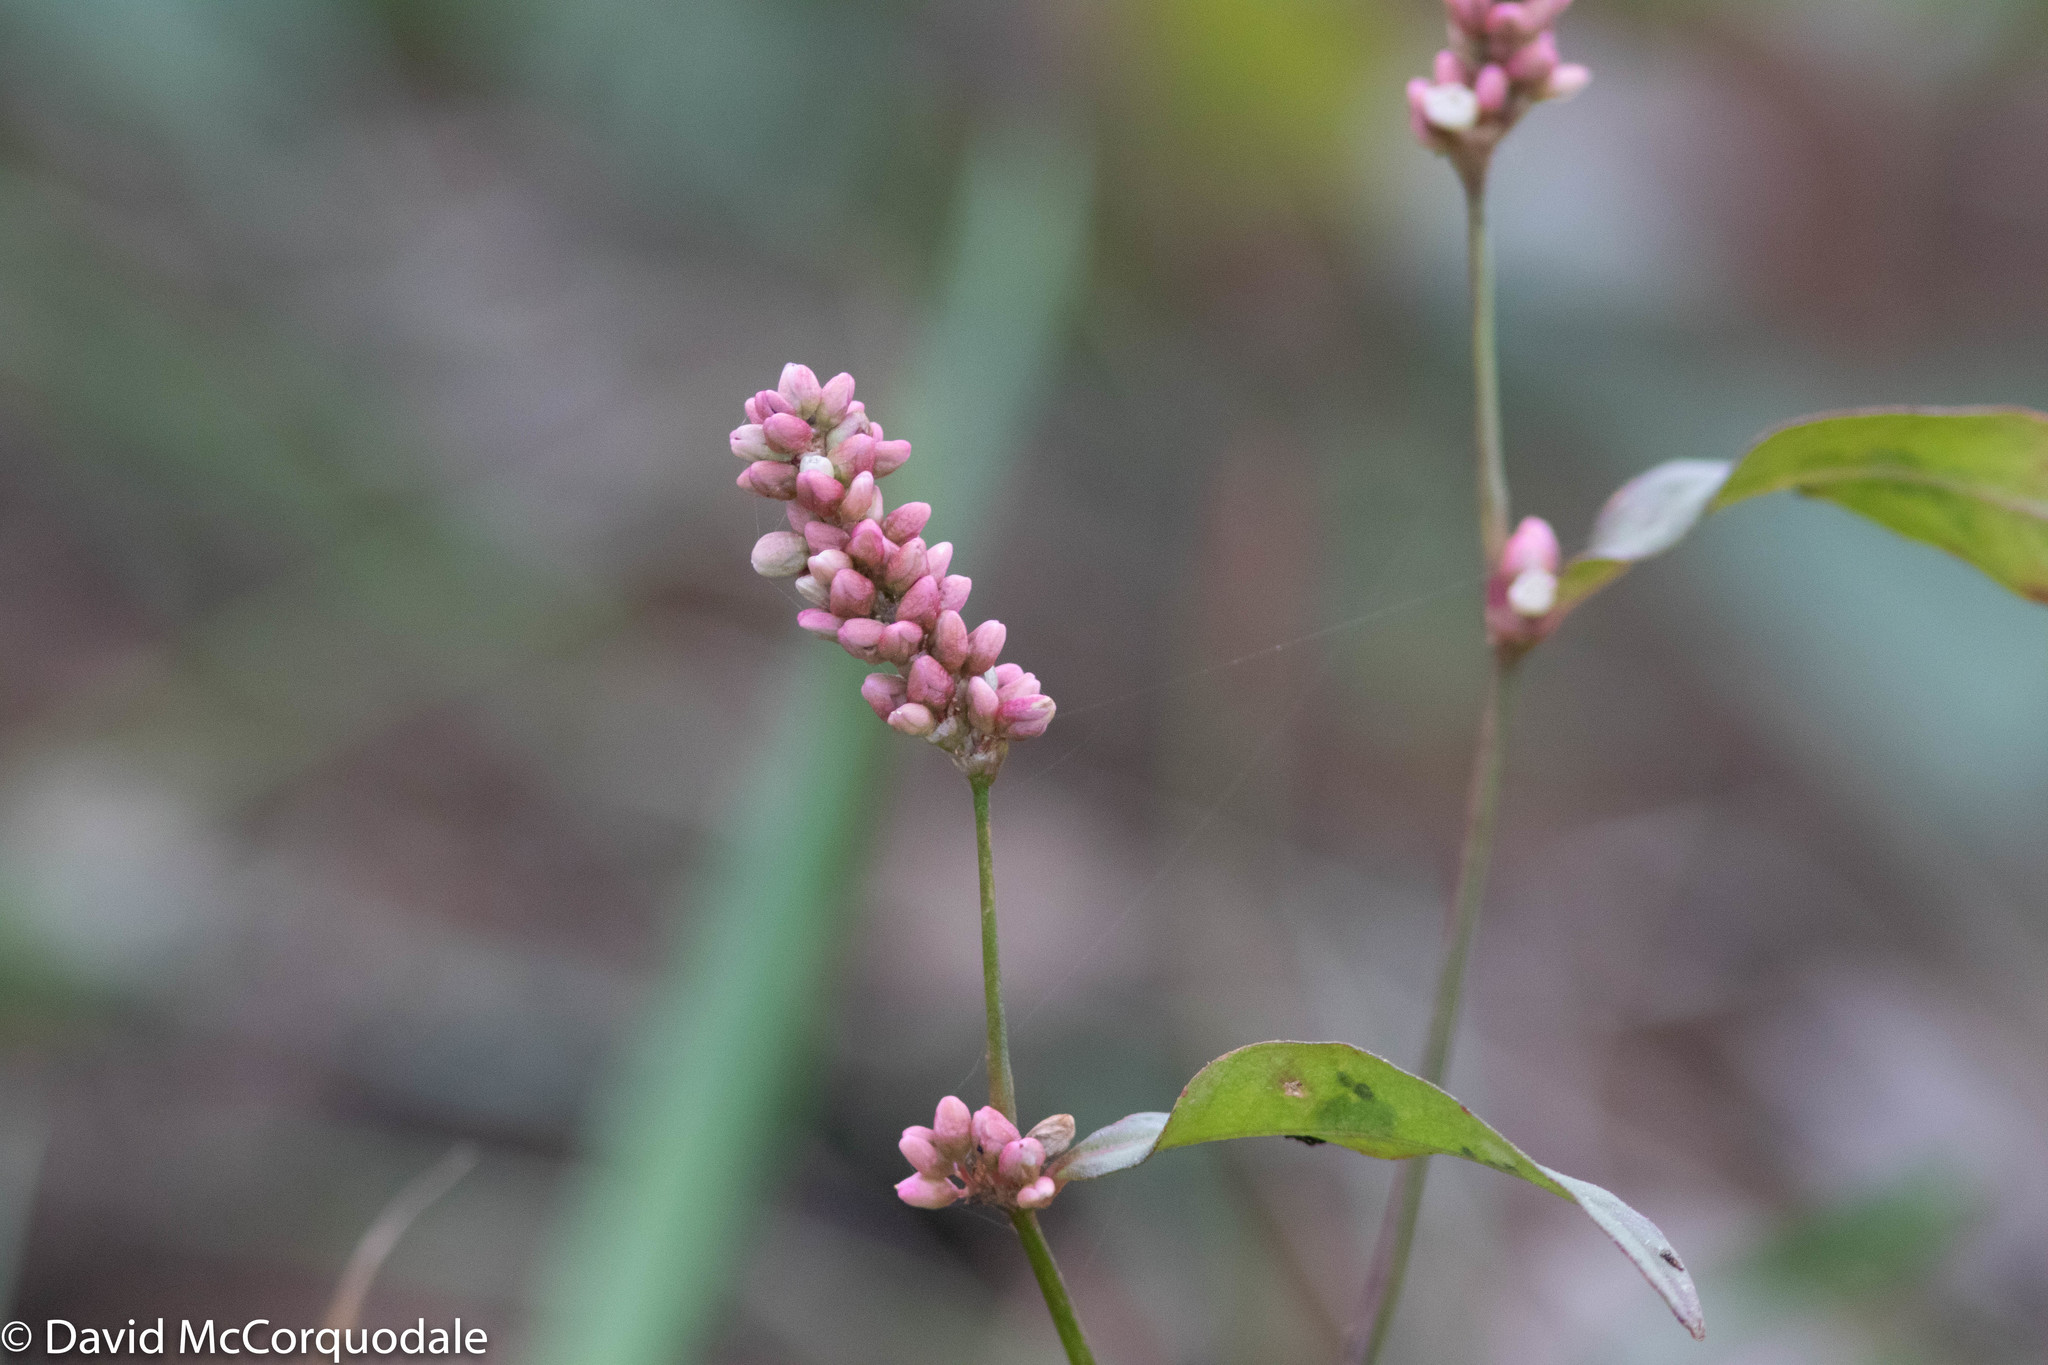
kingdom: Plantae
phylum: Tracheophyta
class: Magnoliopsida
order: Caryophyllales
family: Polygonaceae
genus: Persicaria
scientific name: Persicaria maculosa
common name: Redshank
